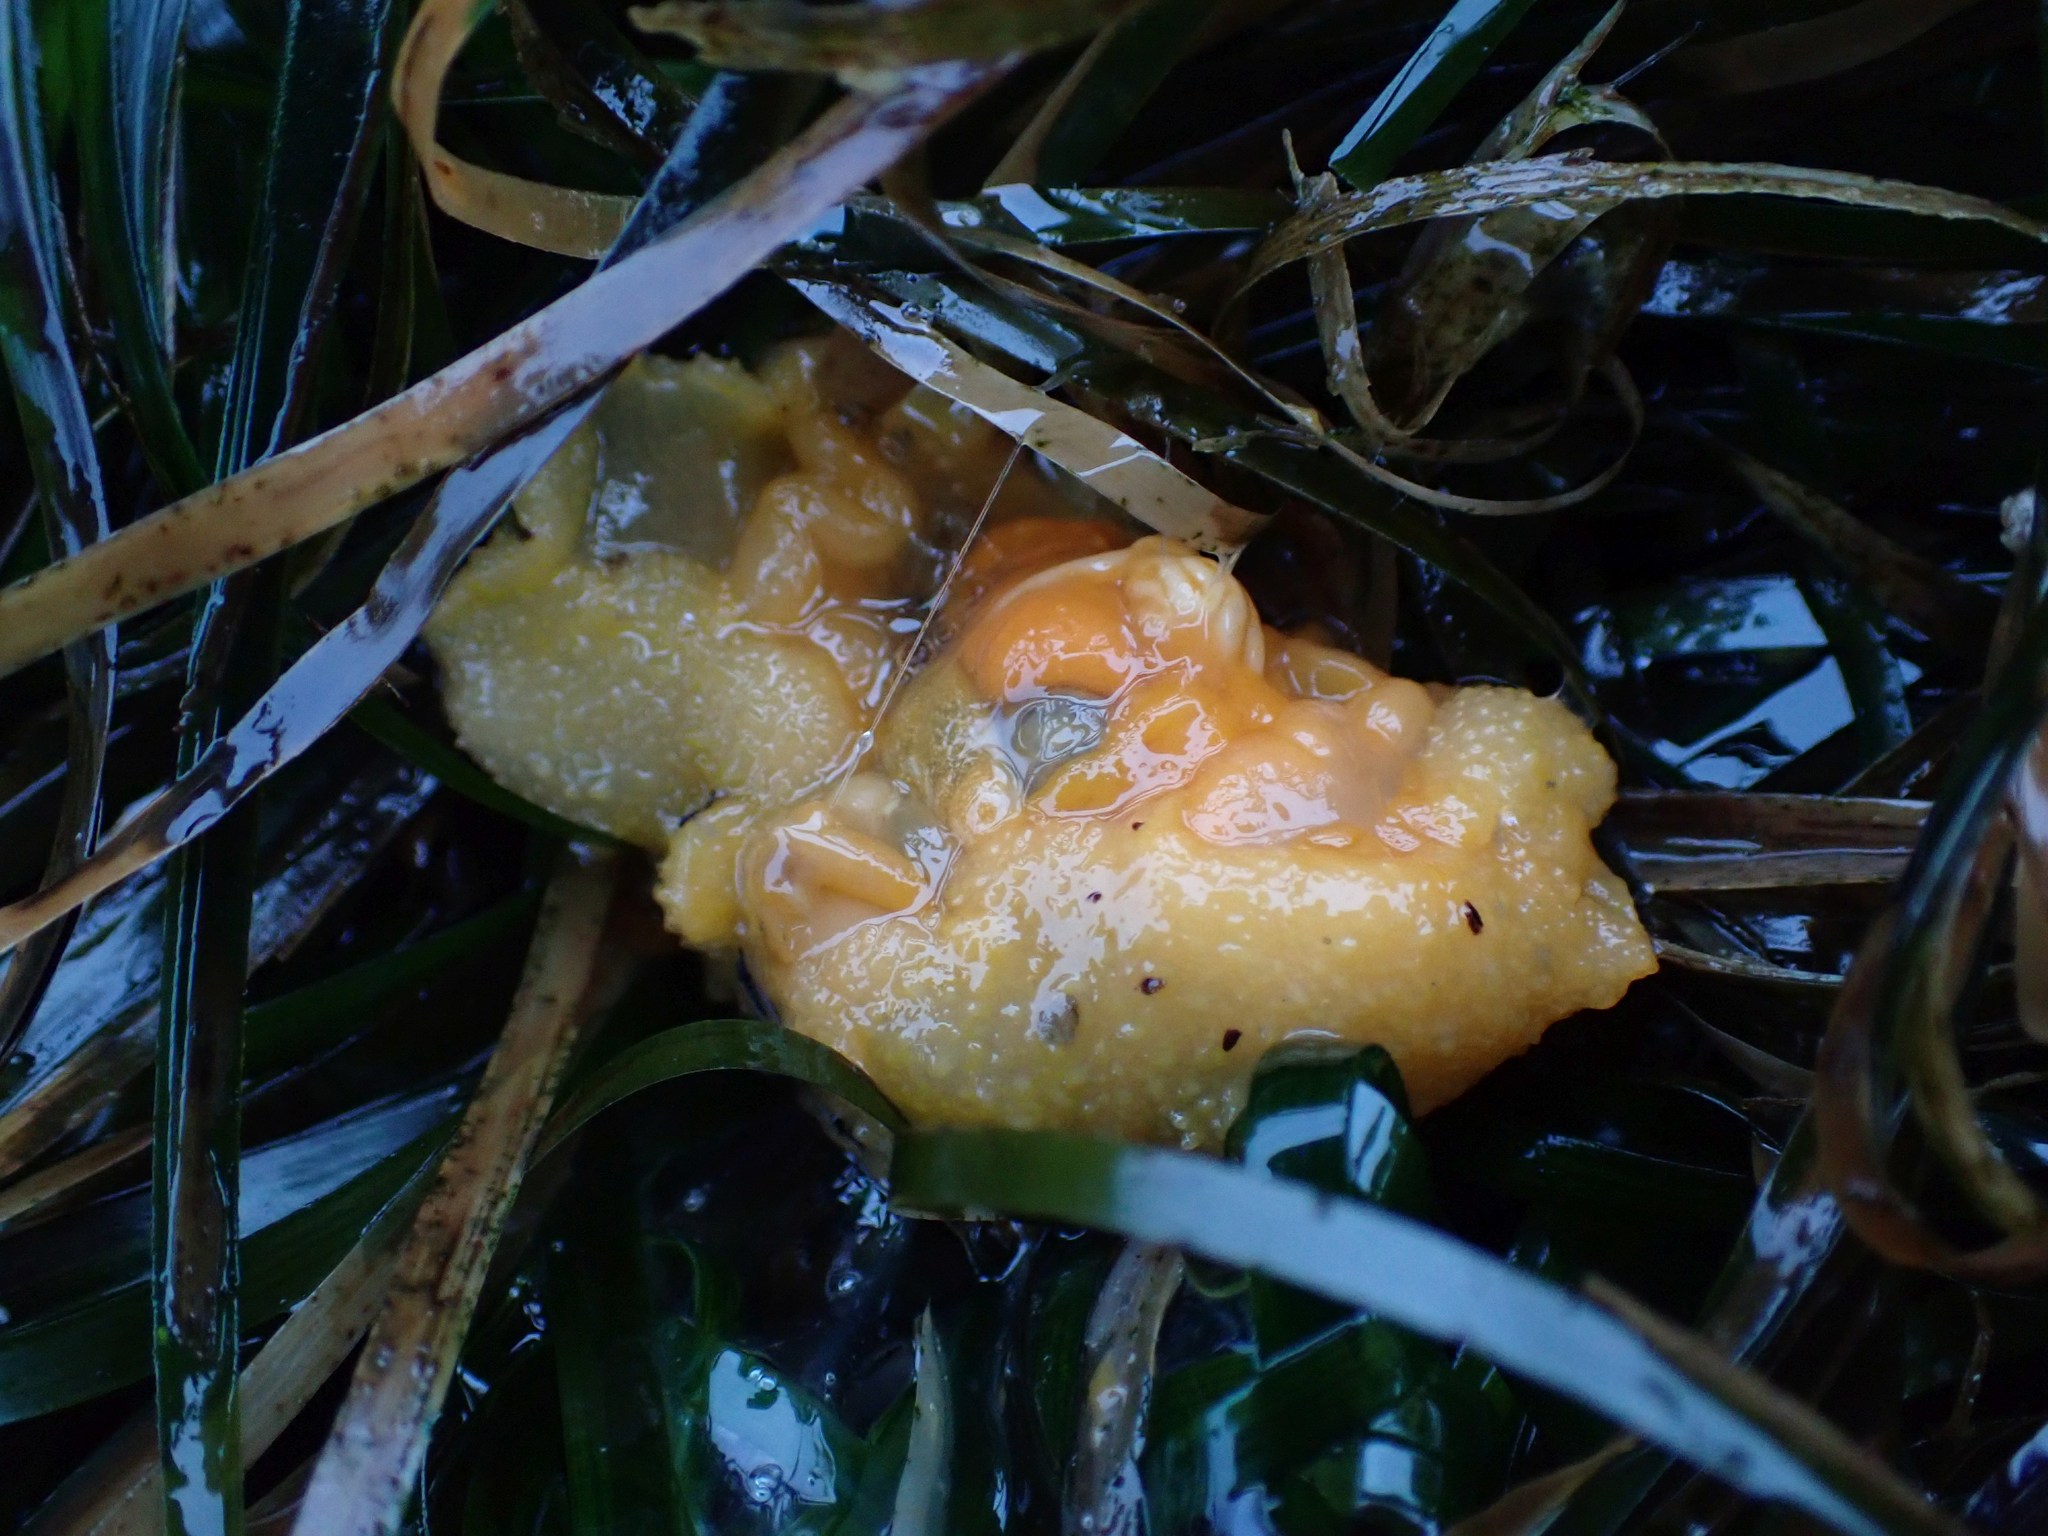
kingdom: Animalia
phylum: Mollusca
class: Gastropoda
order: Nudibranchia
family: Dorididae
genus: Doris
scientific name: Doris montereyensis
